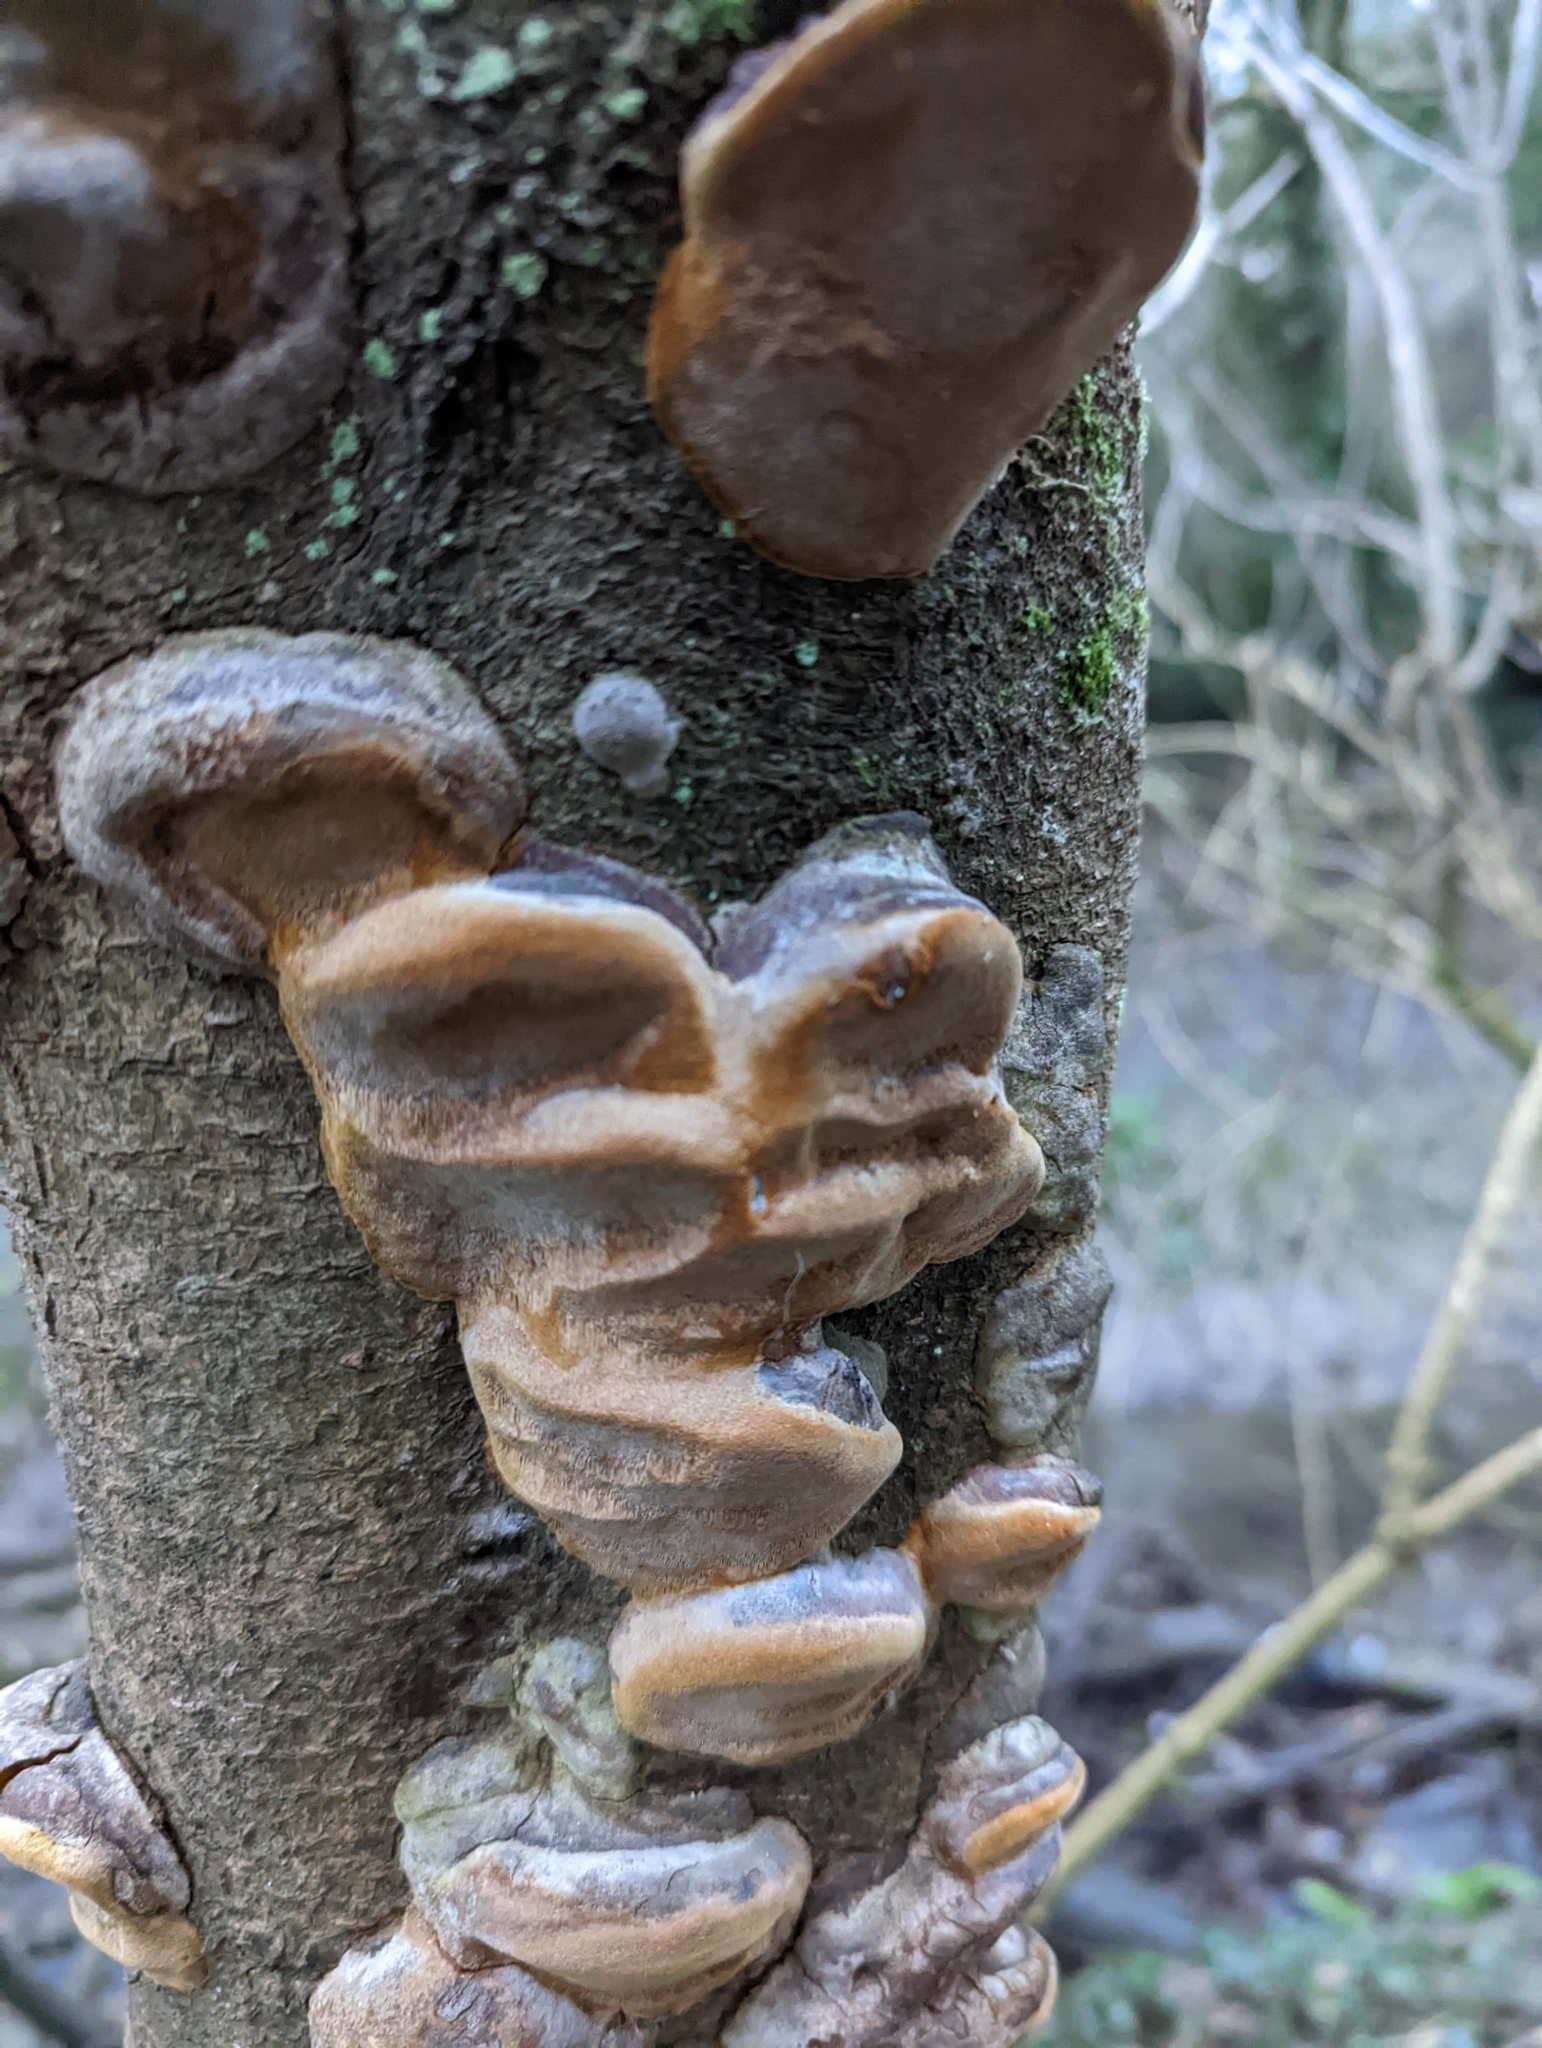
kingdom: Fungi
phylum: Basidiomycota
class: Agaricomycetes
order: Hymenochaetales
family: Hymenochaetaceae
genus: Phellinus
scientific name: Phellinus pomaceus
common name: Cushion bracket
